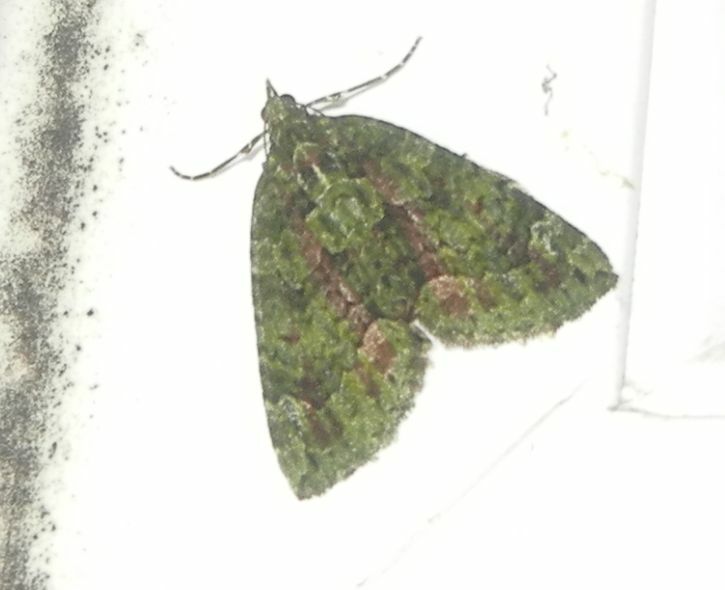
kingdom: Animalia
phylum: Arthropoda
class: Insecta
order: Lepidoptera
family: Geometridae
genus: Chloroclysta
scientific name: Chloroclysta siterata
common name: Red-green carpet
